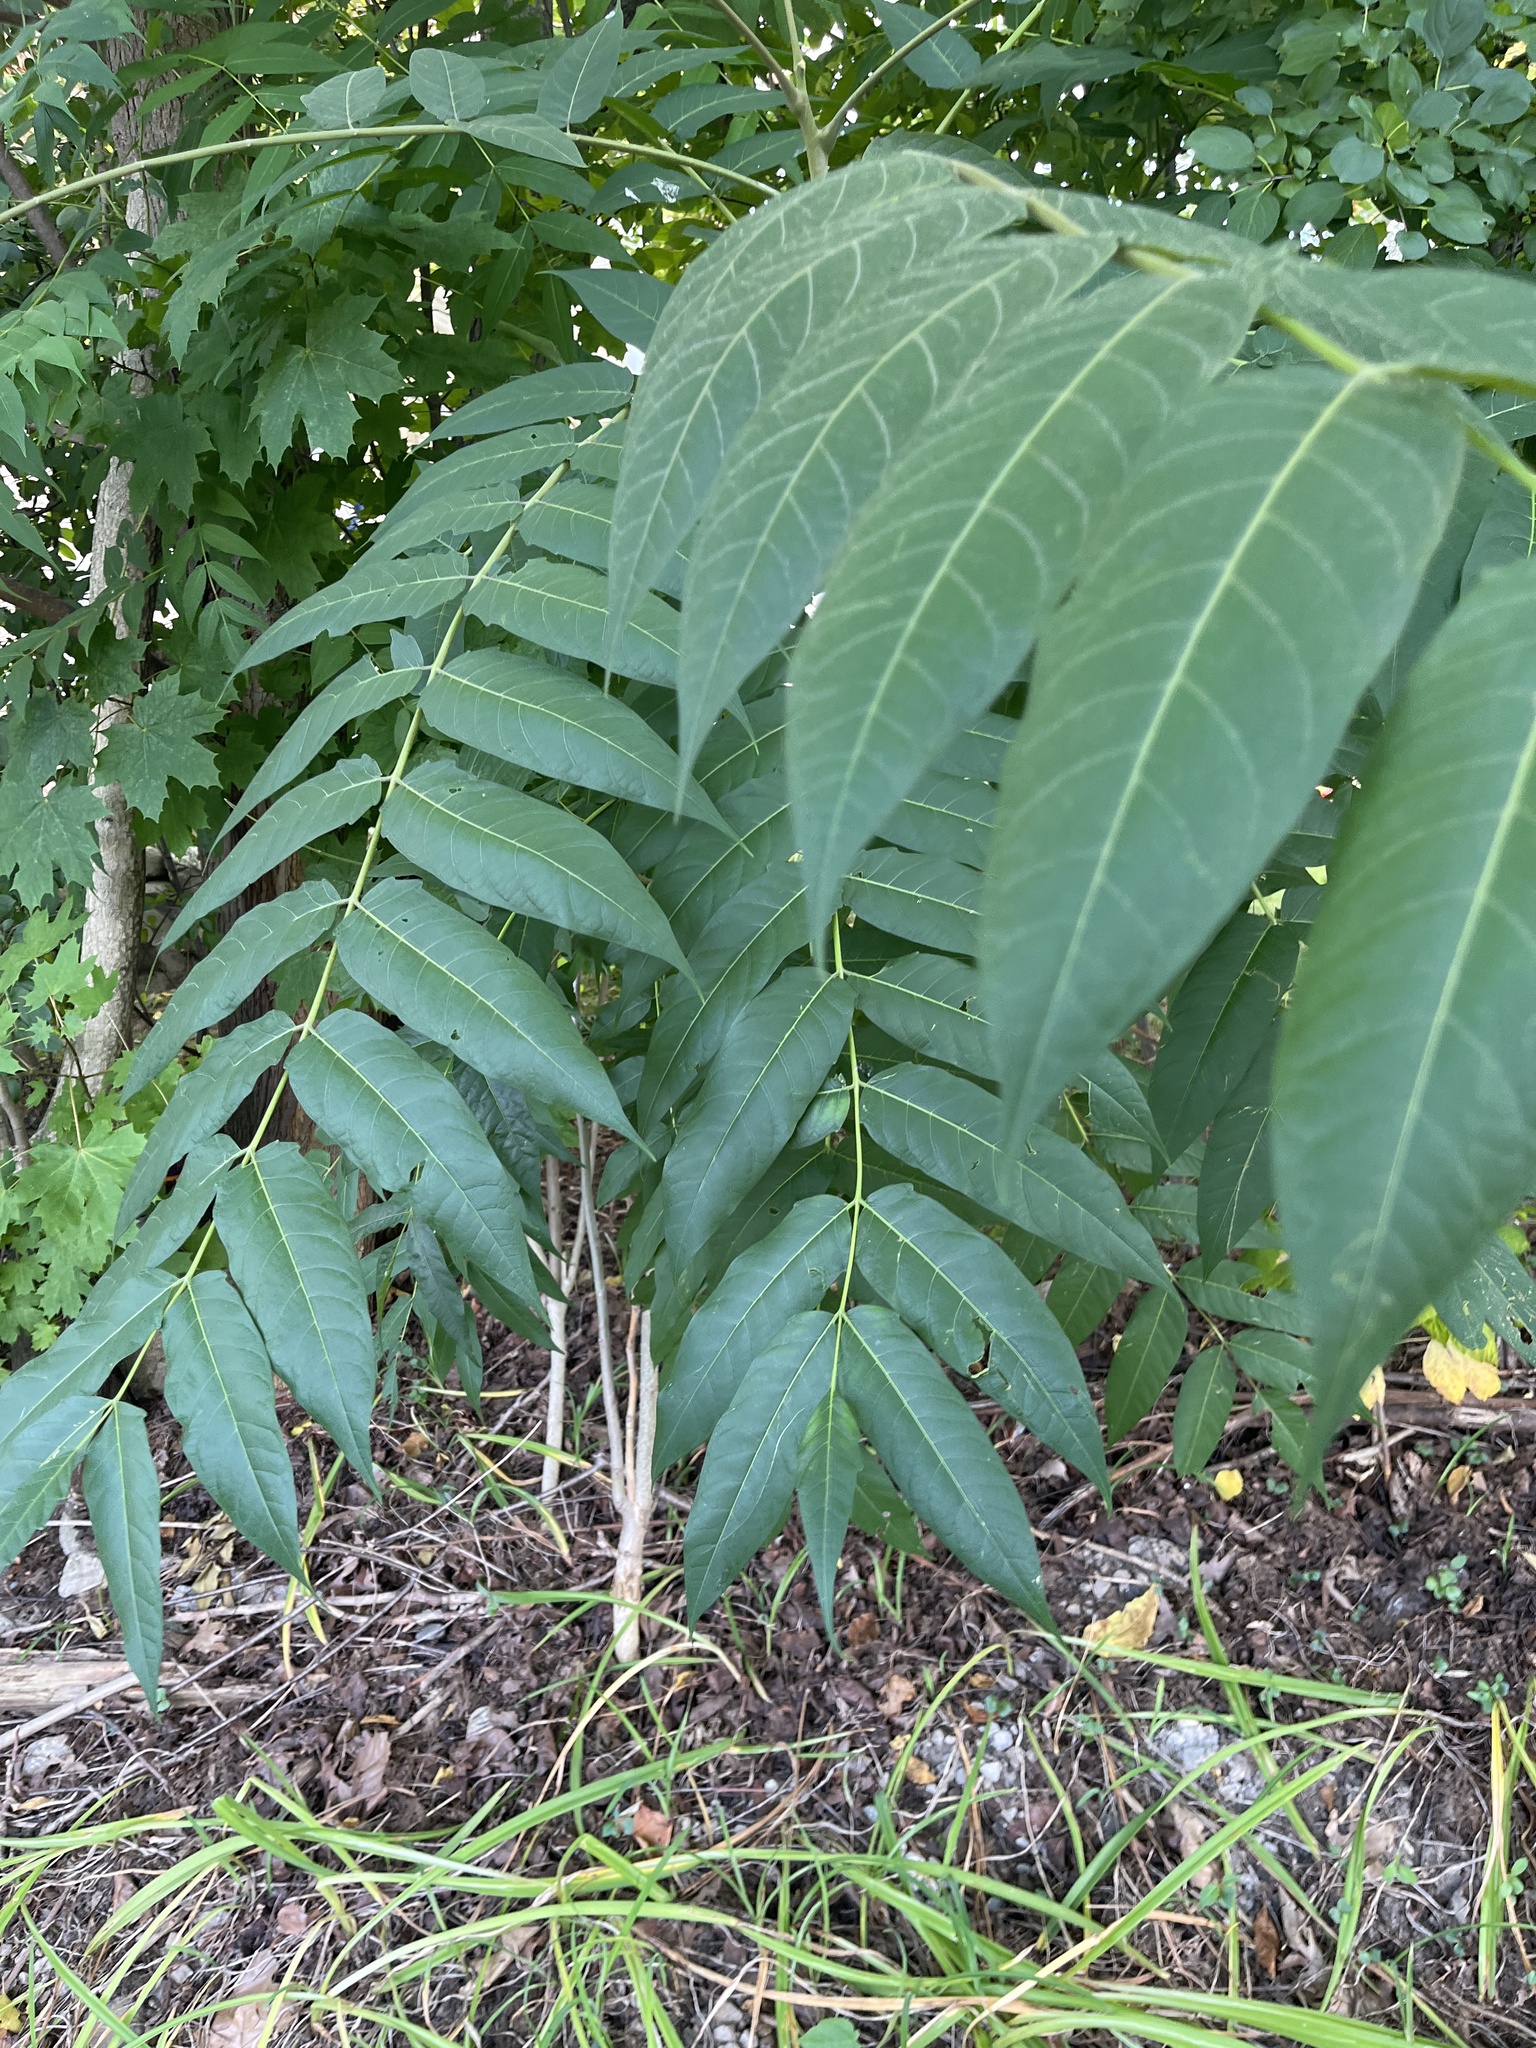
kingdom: Plantae
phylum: Tracheophyta
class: Magnoliopsida
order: Sapindales
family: Simaroubaceae
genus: Ailanthus
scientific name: Ailanthus altissima
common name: Tree-of-heaven
